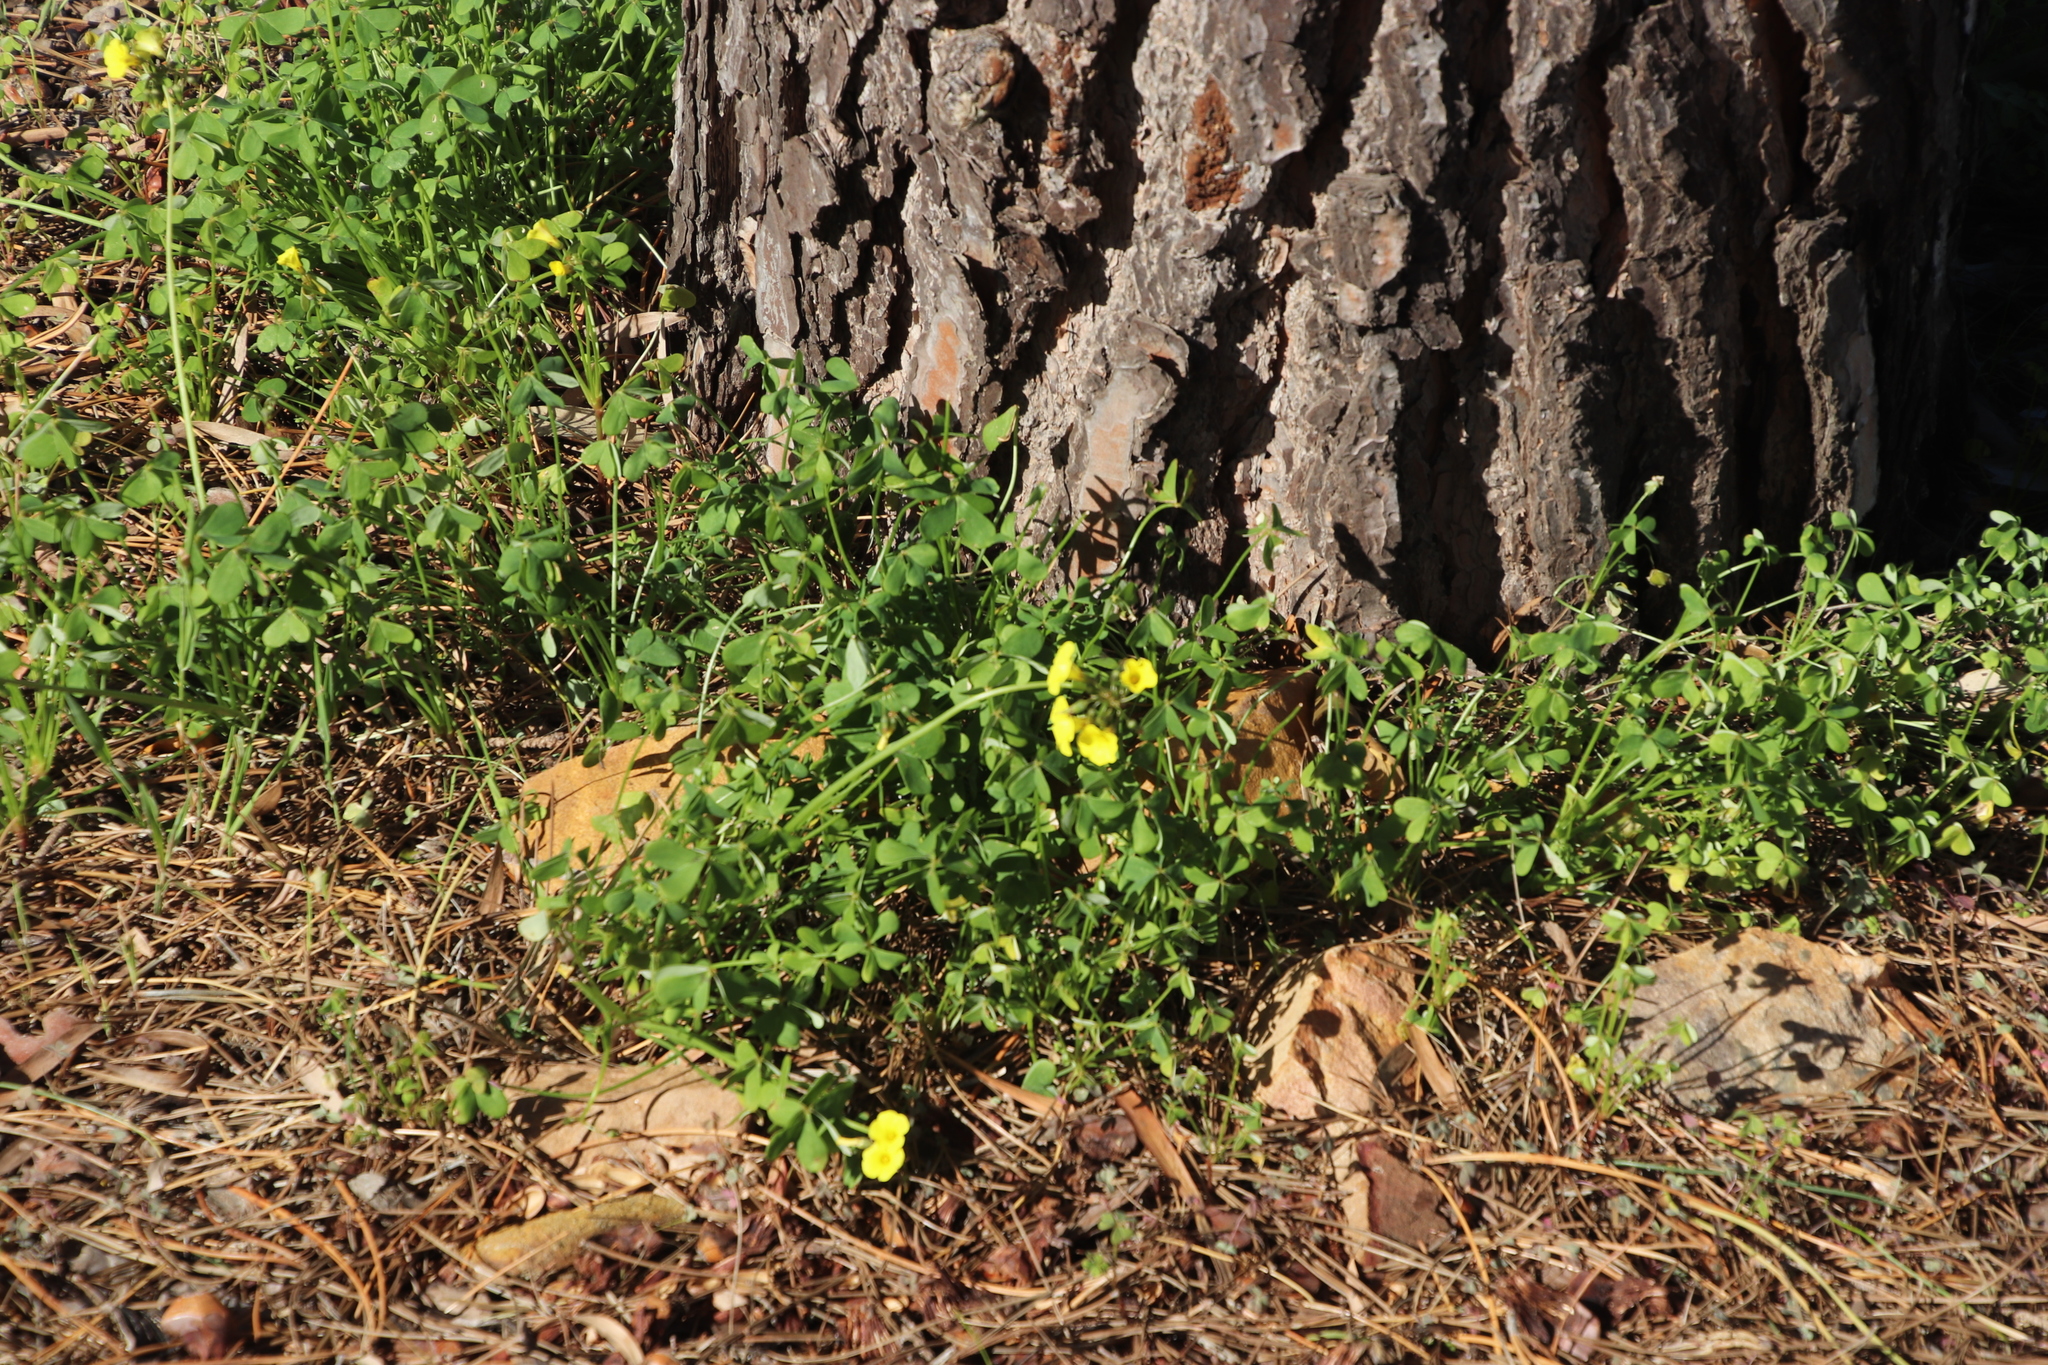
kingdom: Plantae
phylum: Tracheophyta
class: Magnoliopsida
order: Oxalidales
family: Oxalidaceae
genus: Oxalis
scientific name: Oxalis pes-caprae
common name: Bermuda-buttercup
